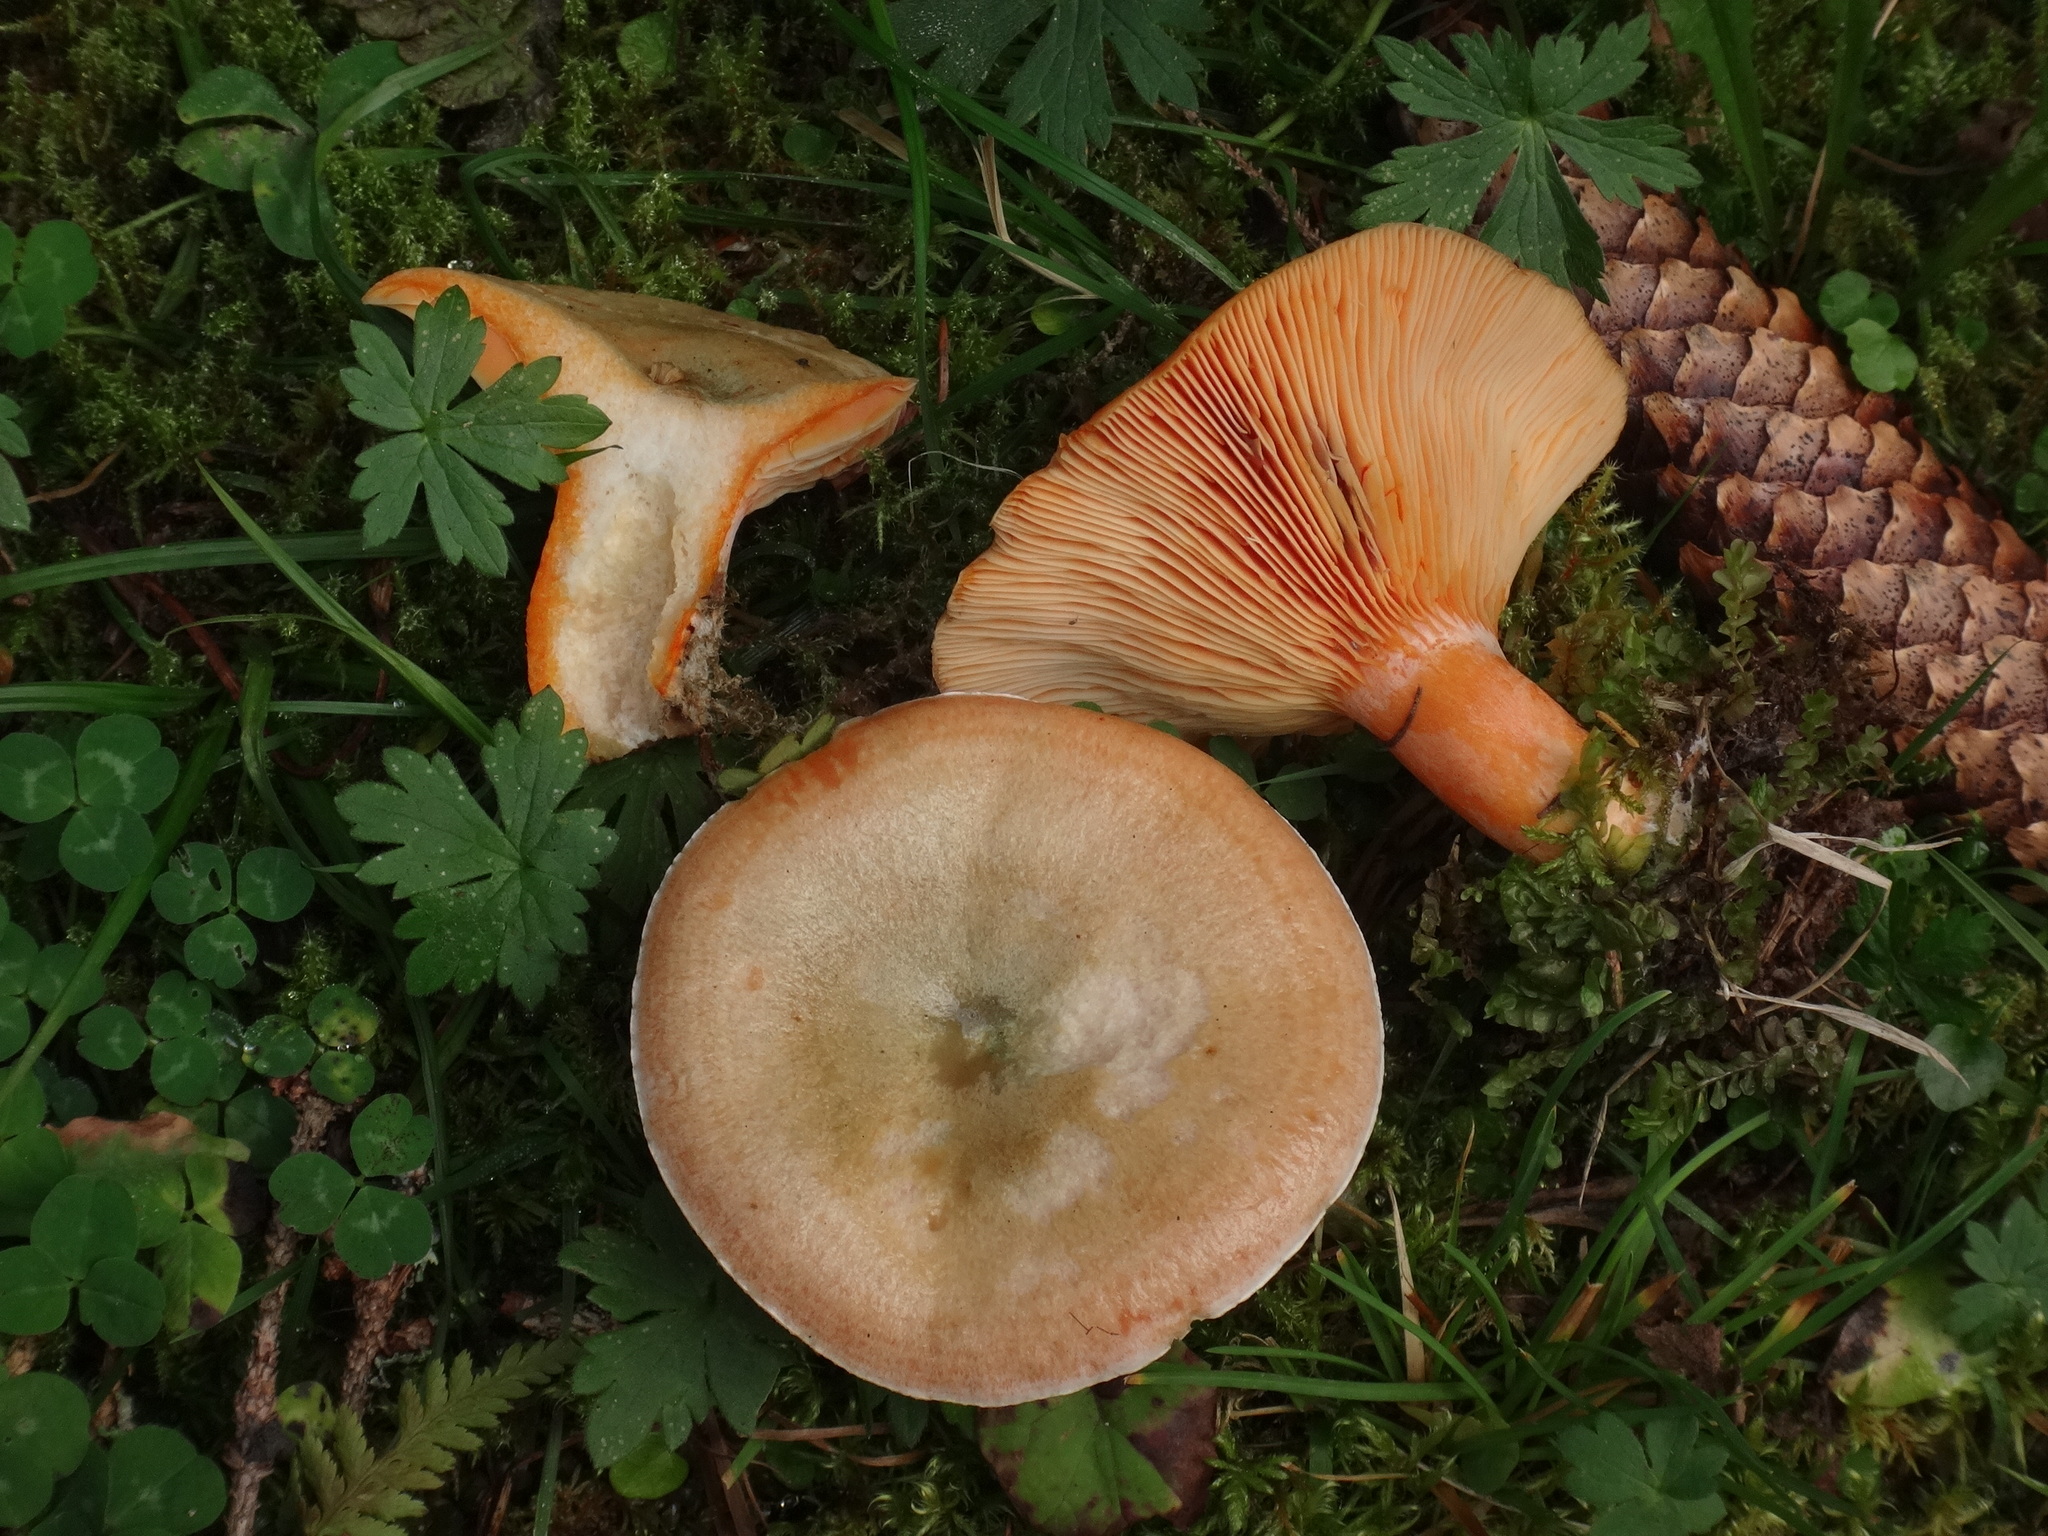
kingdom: Fungi
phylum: Basidiomycota
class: Agaricomycetes
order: Russulales
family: Russulaceae
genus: Lactarius
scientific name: Lactarius deterrimus
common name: False saffron milkcap
